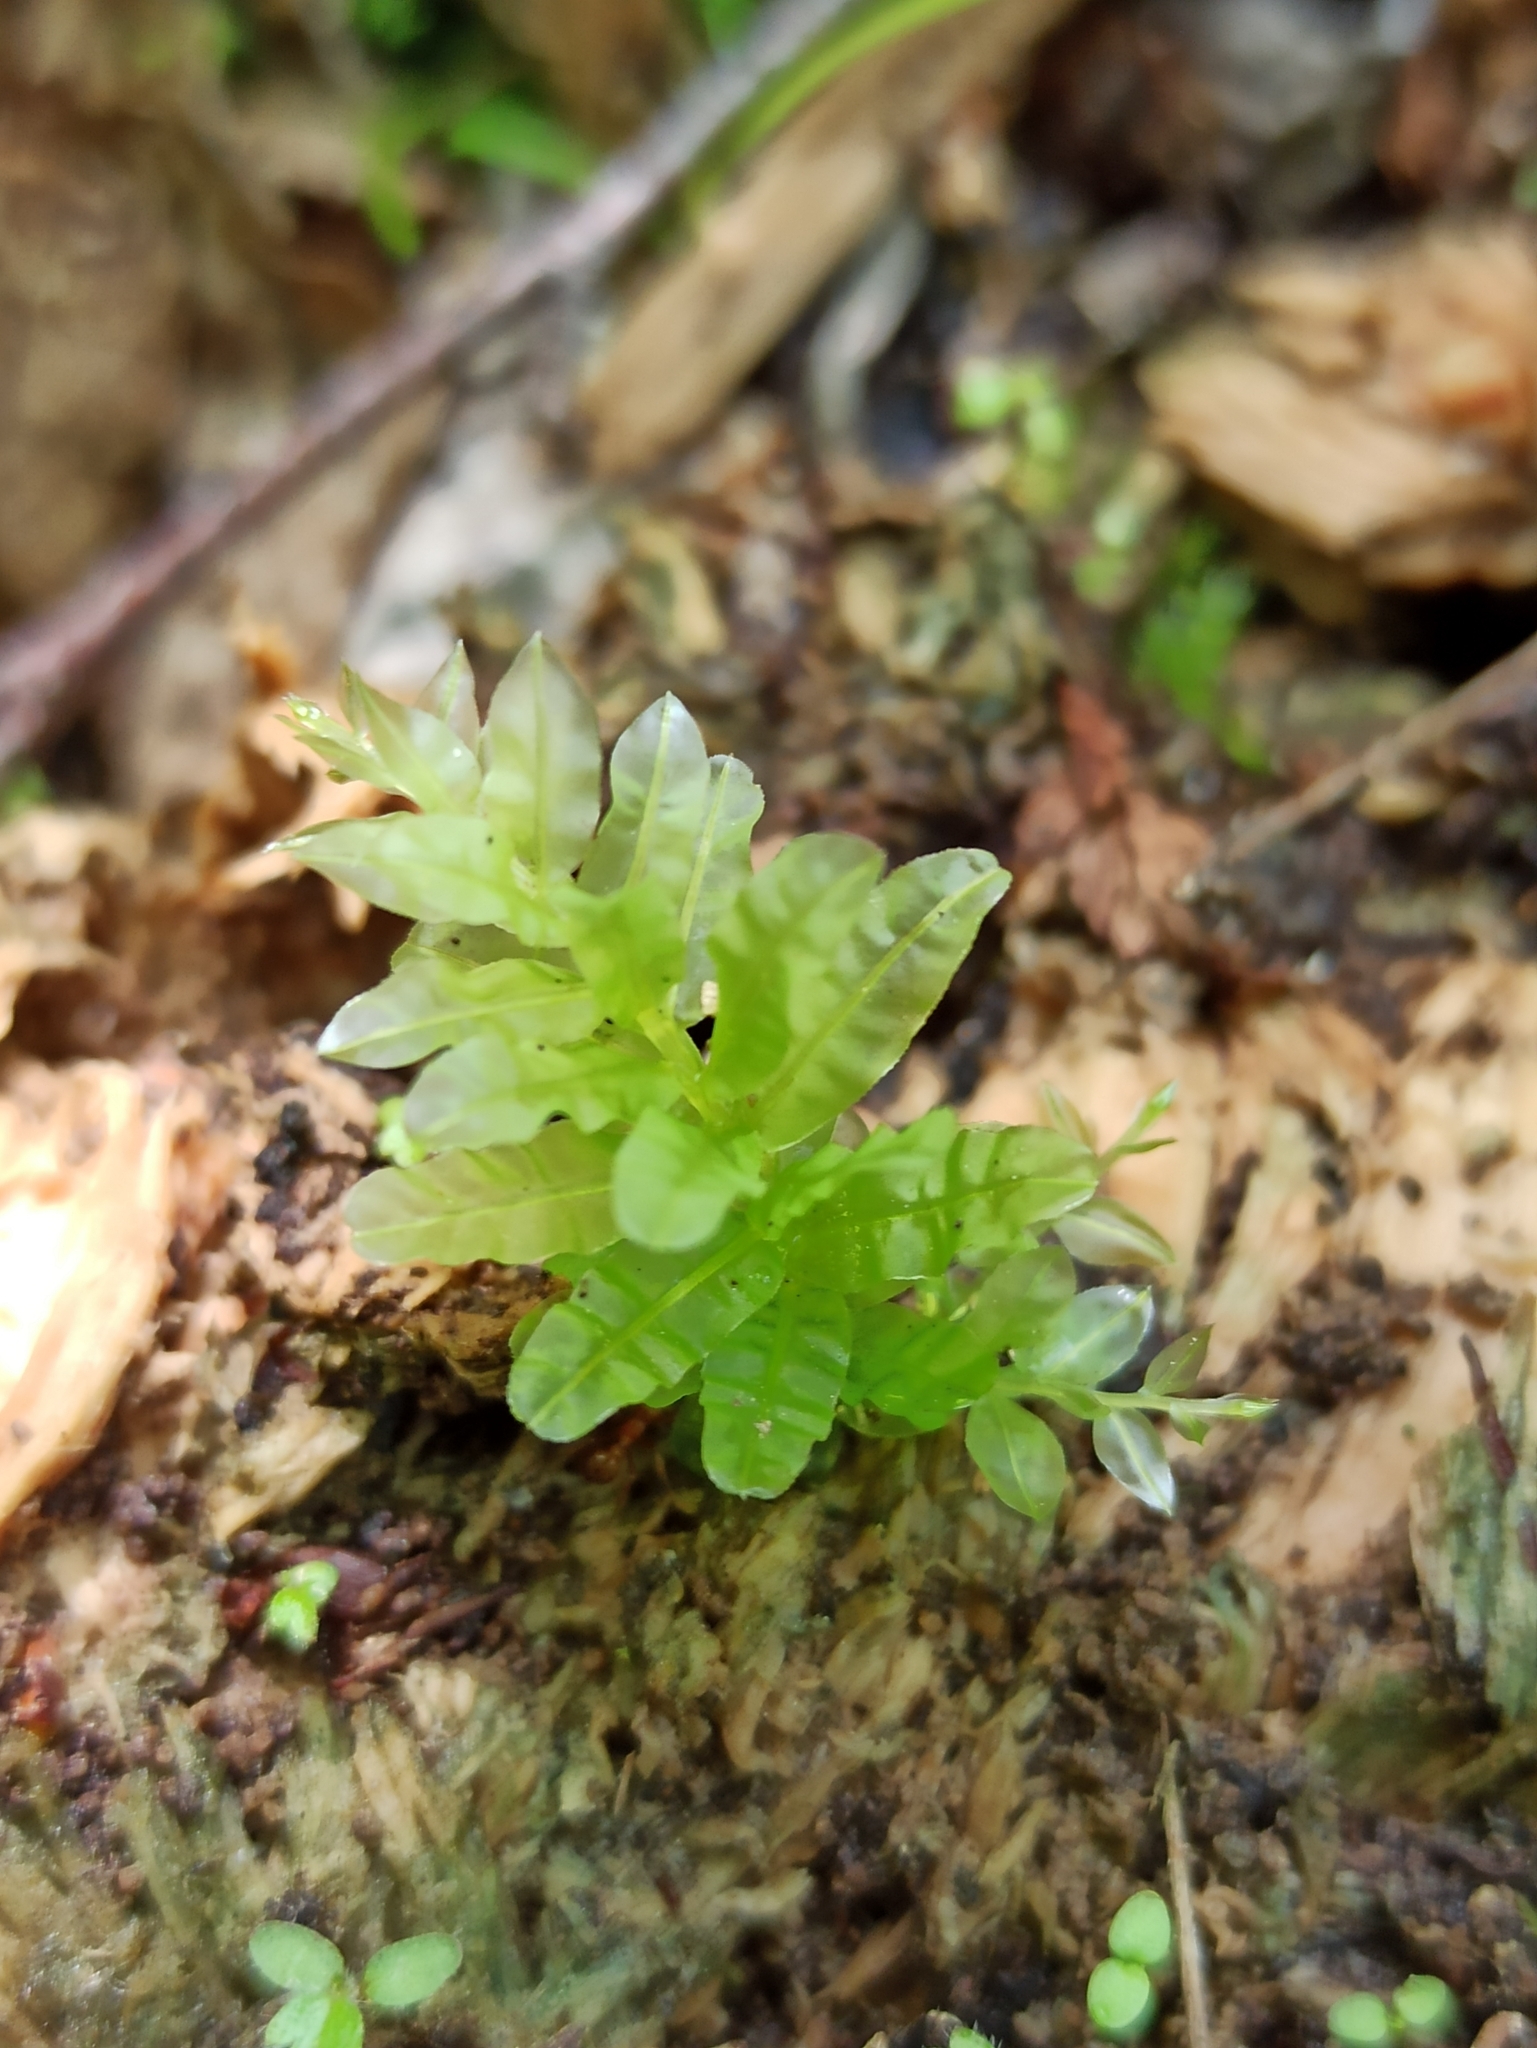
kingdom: Plantae
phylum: Bryophyta
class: Bryopsida
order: Bryales
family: Mniaceae
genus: Plagiomnium
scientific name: Plagiomnium undulatum
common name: Hart's-tongue thyme-moss
